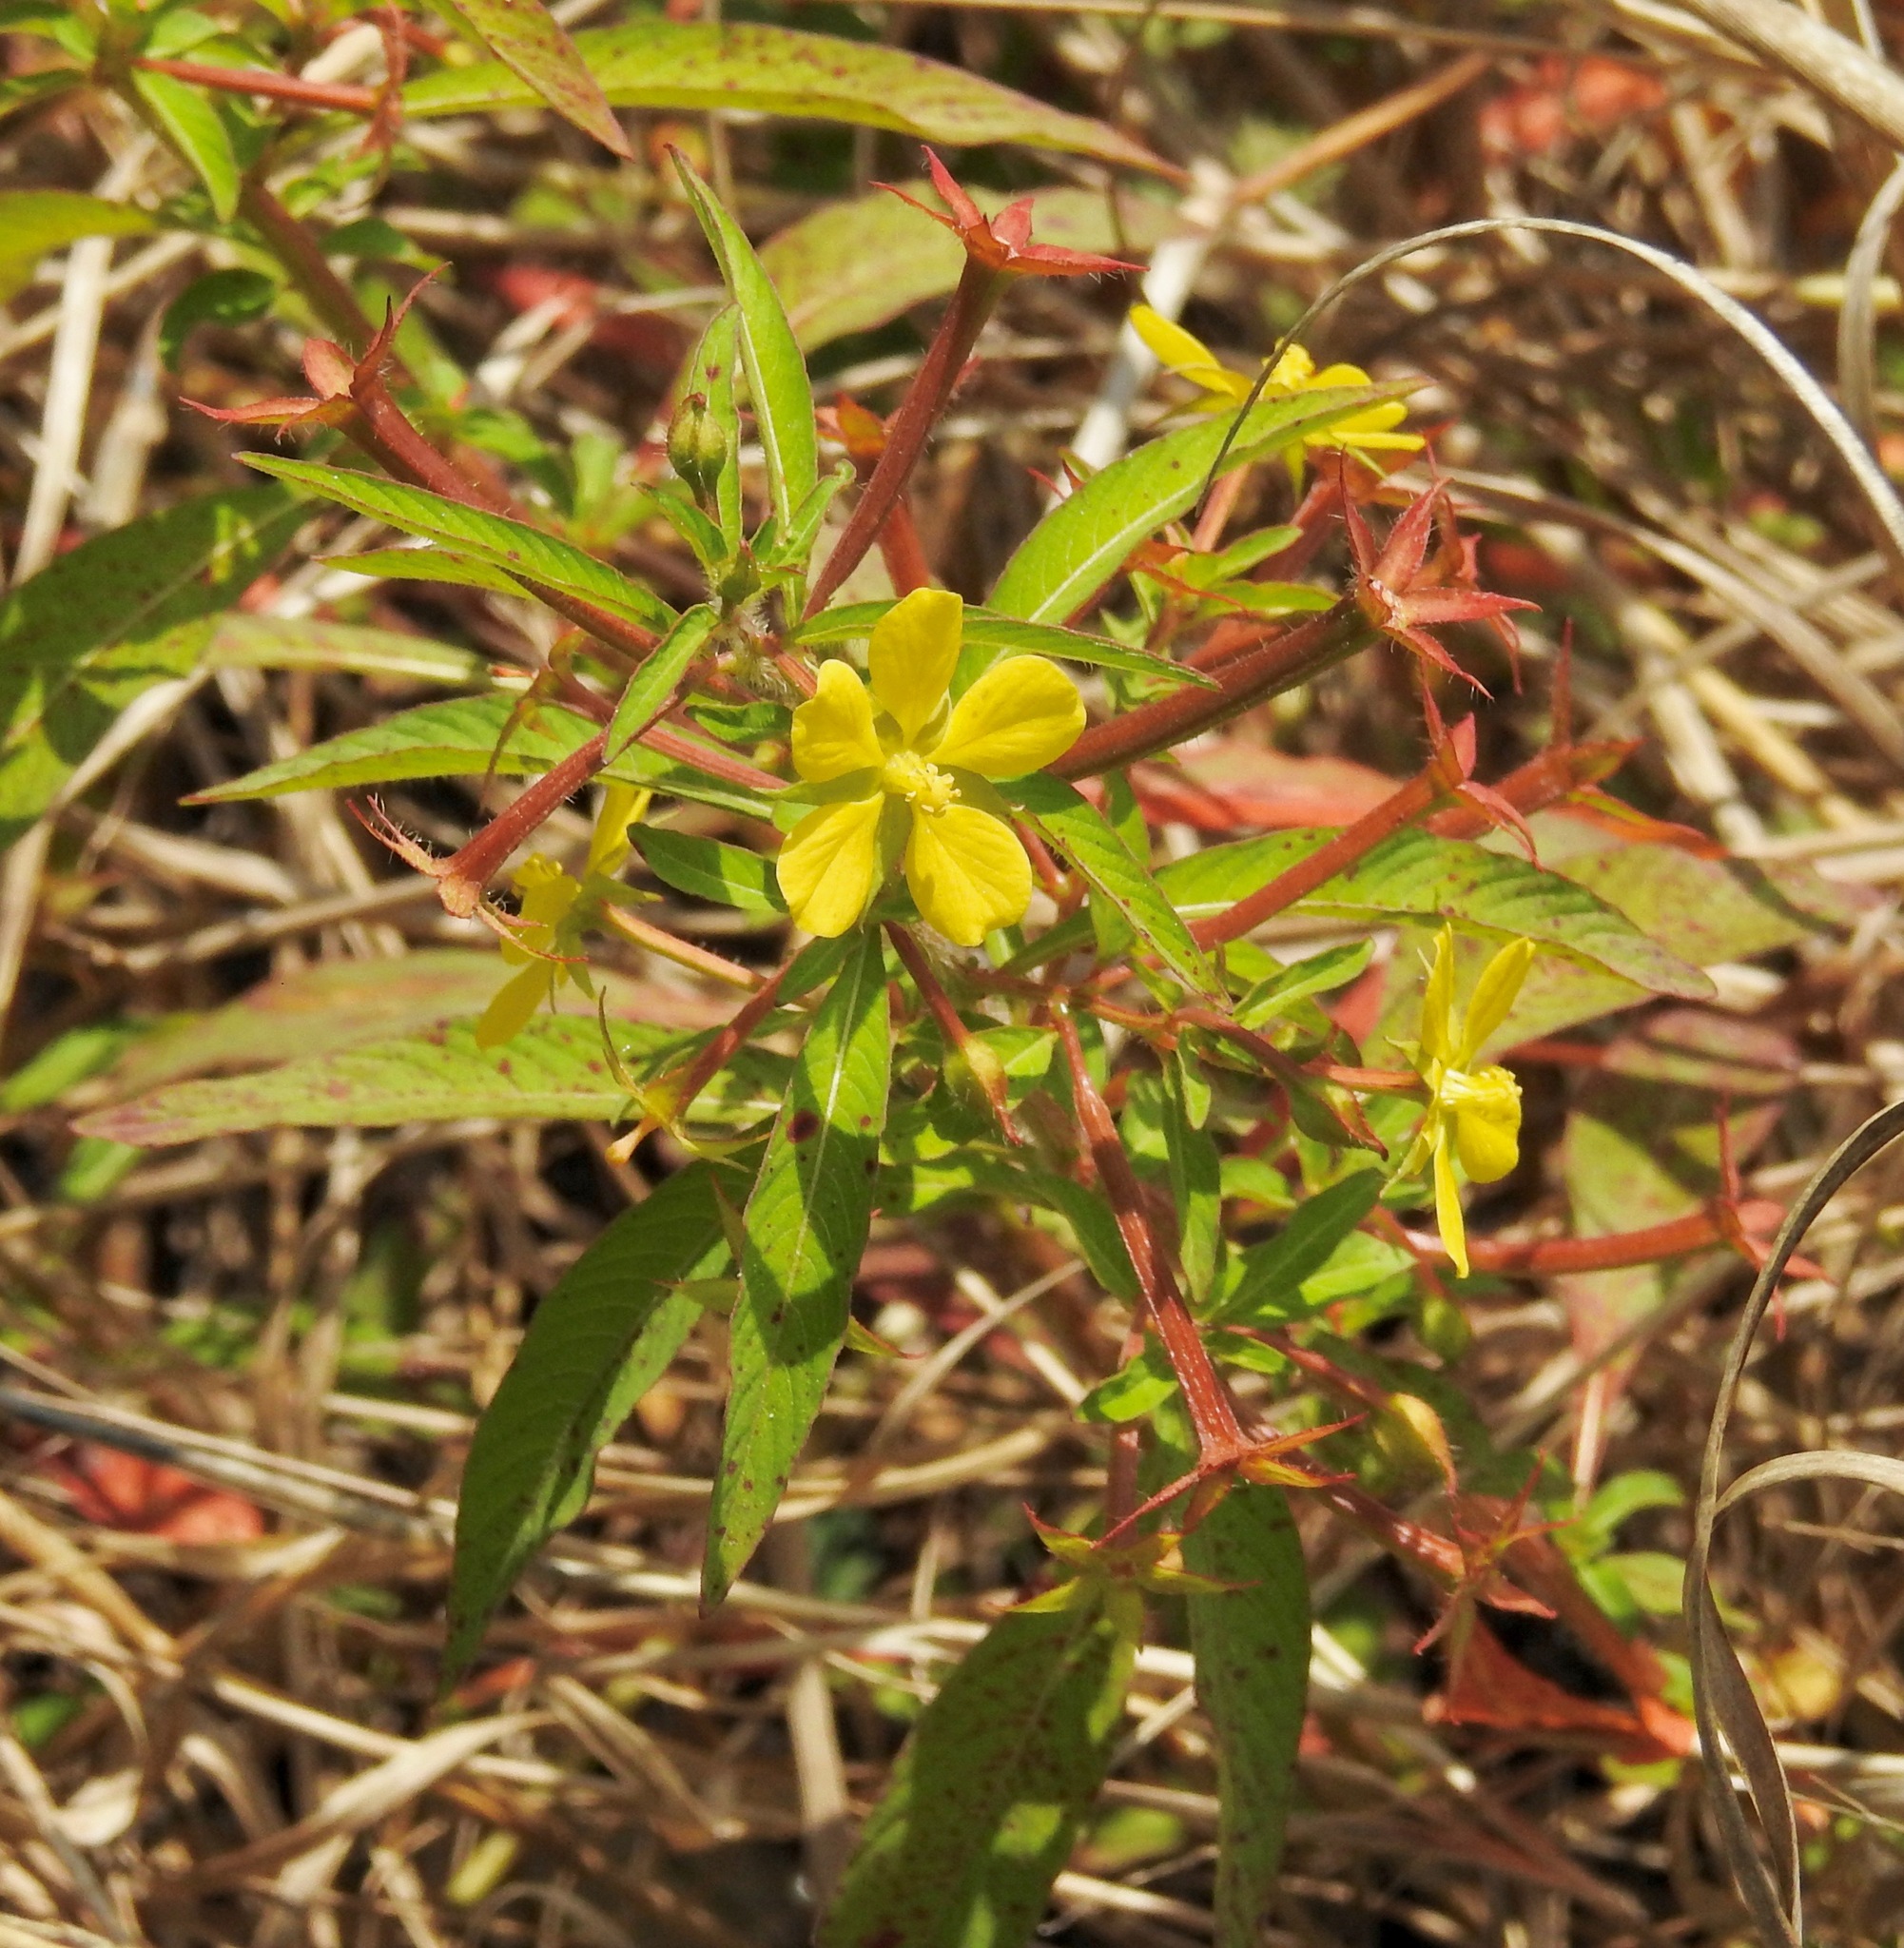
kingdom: Plantae
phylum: Tracheophyta
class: Magnoliopsida
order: Myrtales
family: Onagraceae
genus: Ludwigia
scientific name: Ludwigia leptocarpa
